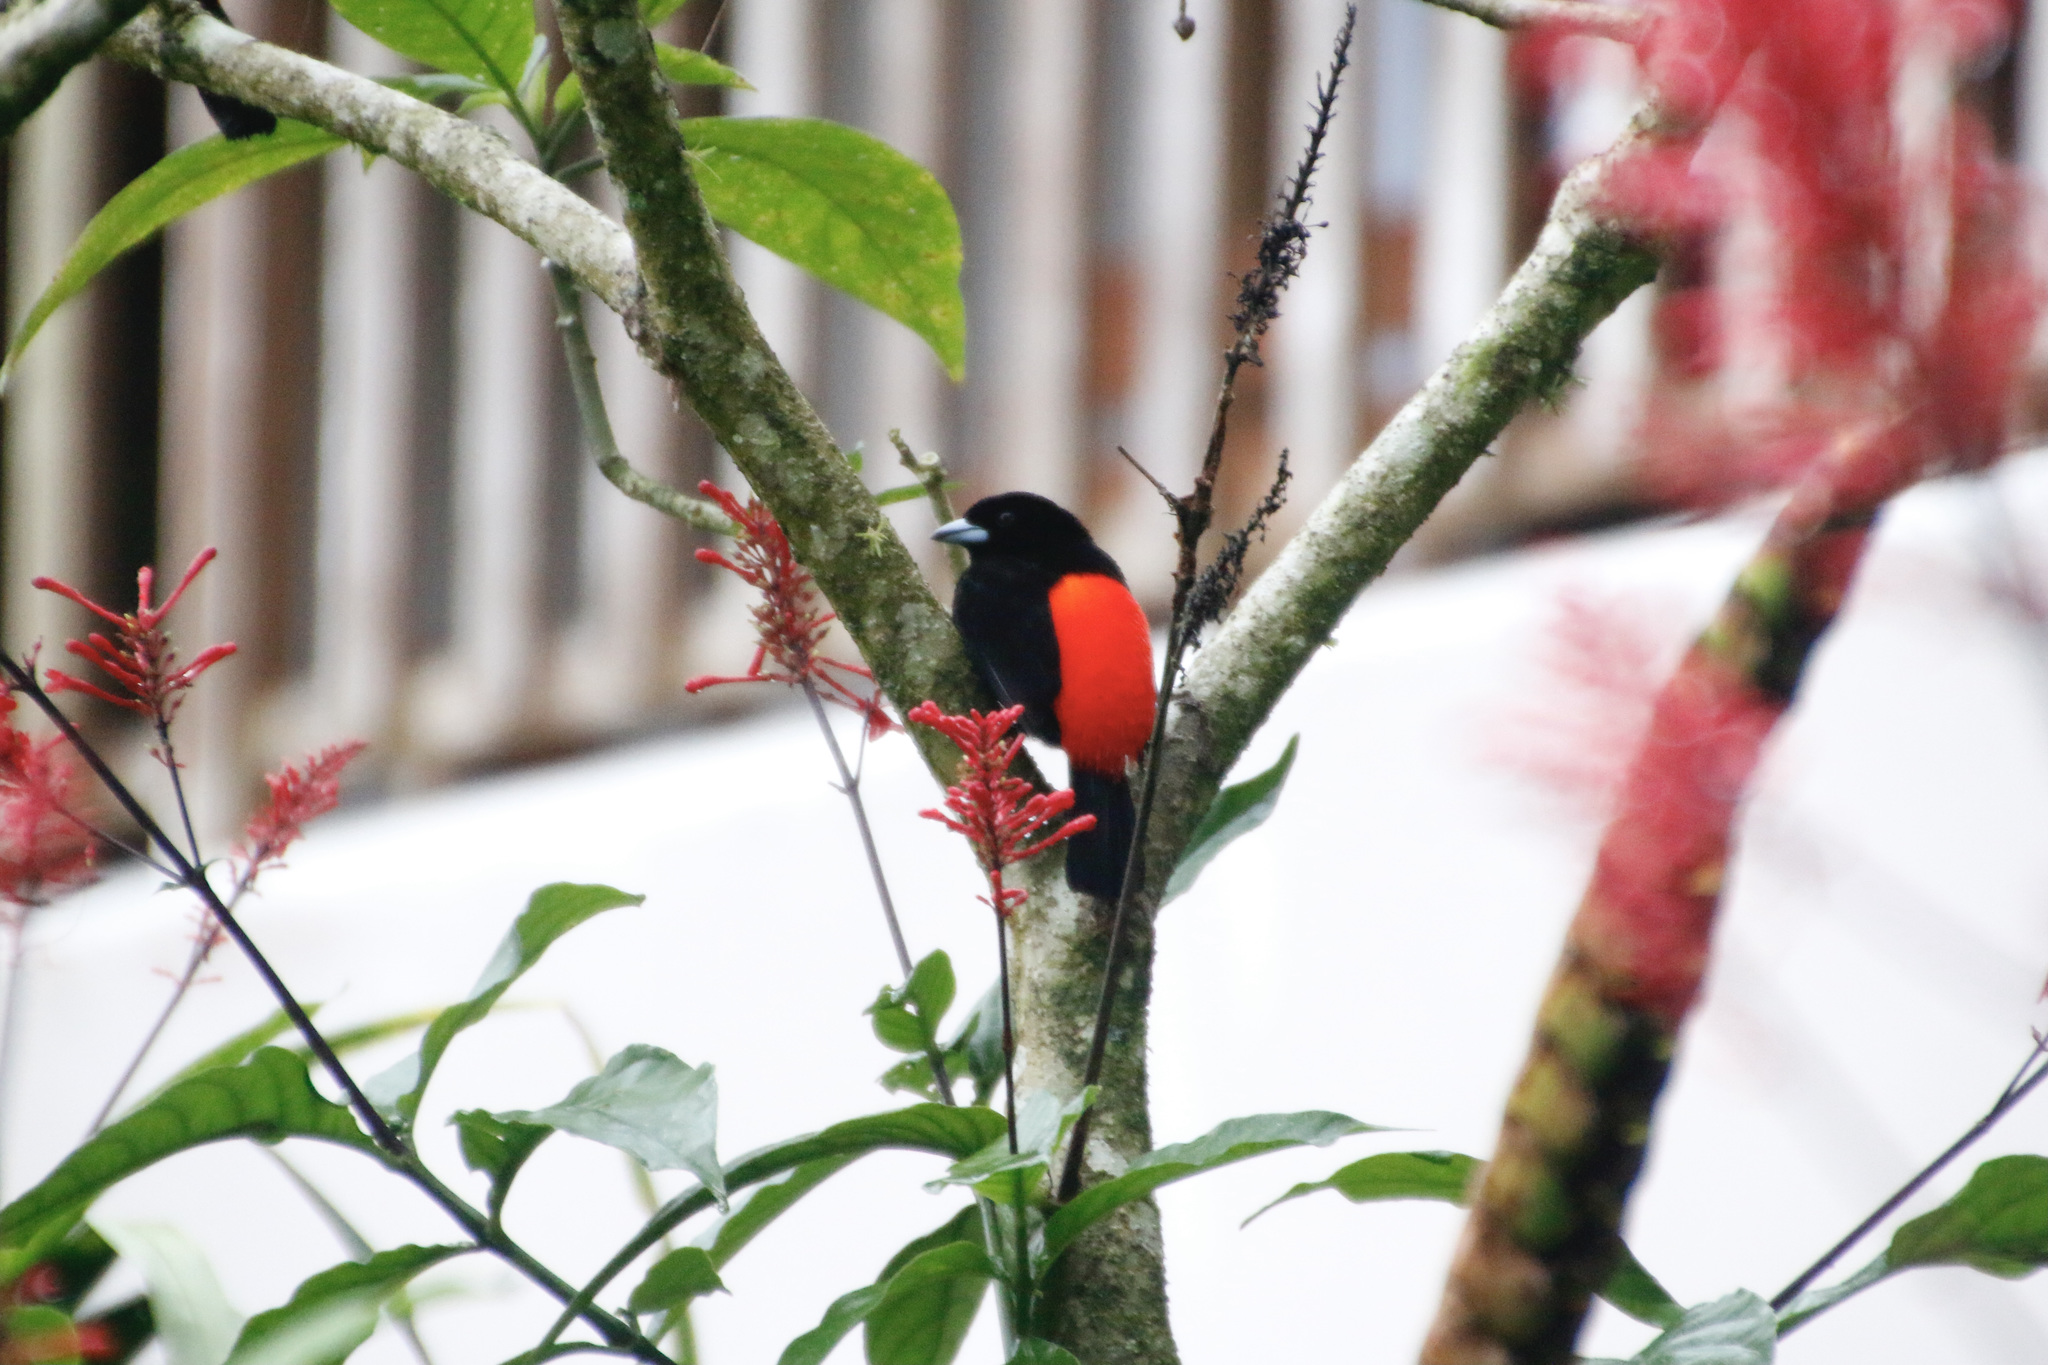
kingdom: Animalia
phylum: Chordata
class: Aves
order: Passeriformes
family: Thraupidae
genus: Ramphocelus
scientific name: Ramphocelus passerinii
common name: Passerini's tanager
